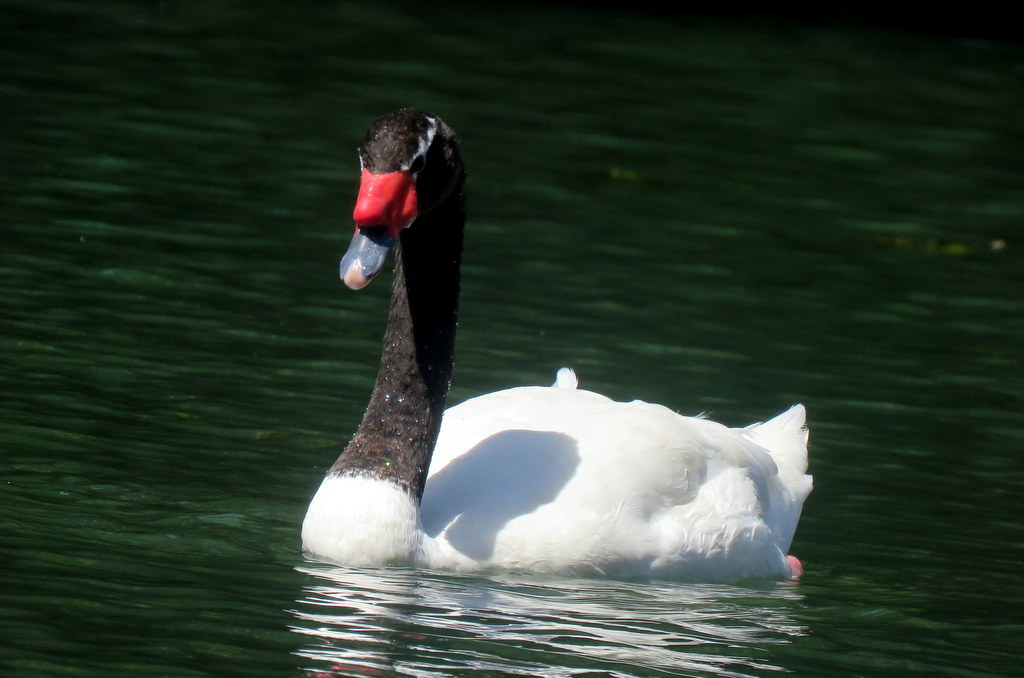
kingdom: Animalia
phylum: Chordata
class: Aves
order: Anseriformes
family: Anatidae
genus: Cygnus
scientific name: Cygnus melancoryphus
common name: Black-necked swan
